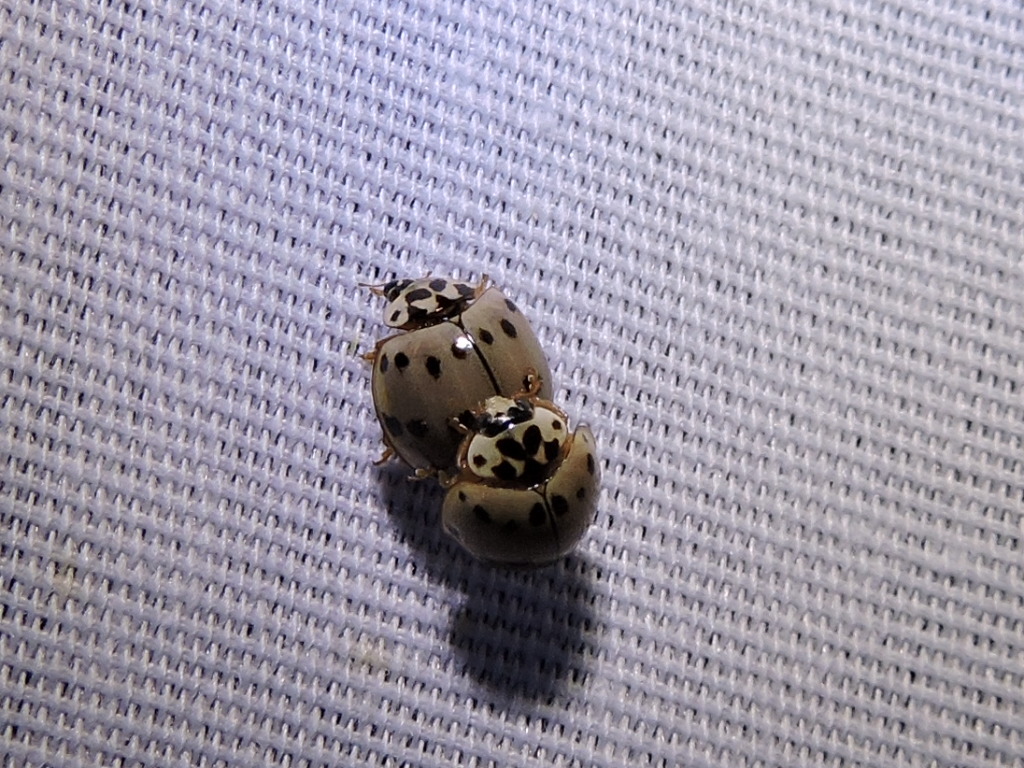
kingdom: Animalia
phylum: Arthropoda
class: Insecta
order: Coleoptera
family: Coccinellidae
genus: Olla
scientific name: Olla v-nigrum
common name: Ashy gray lady beetle
